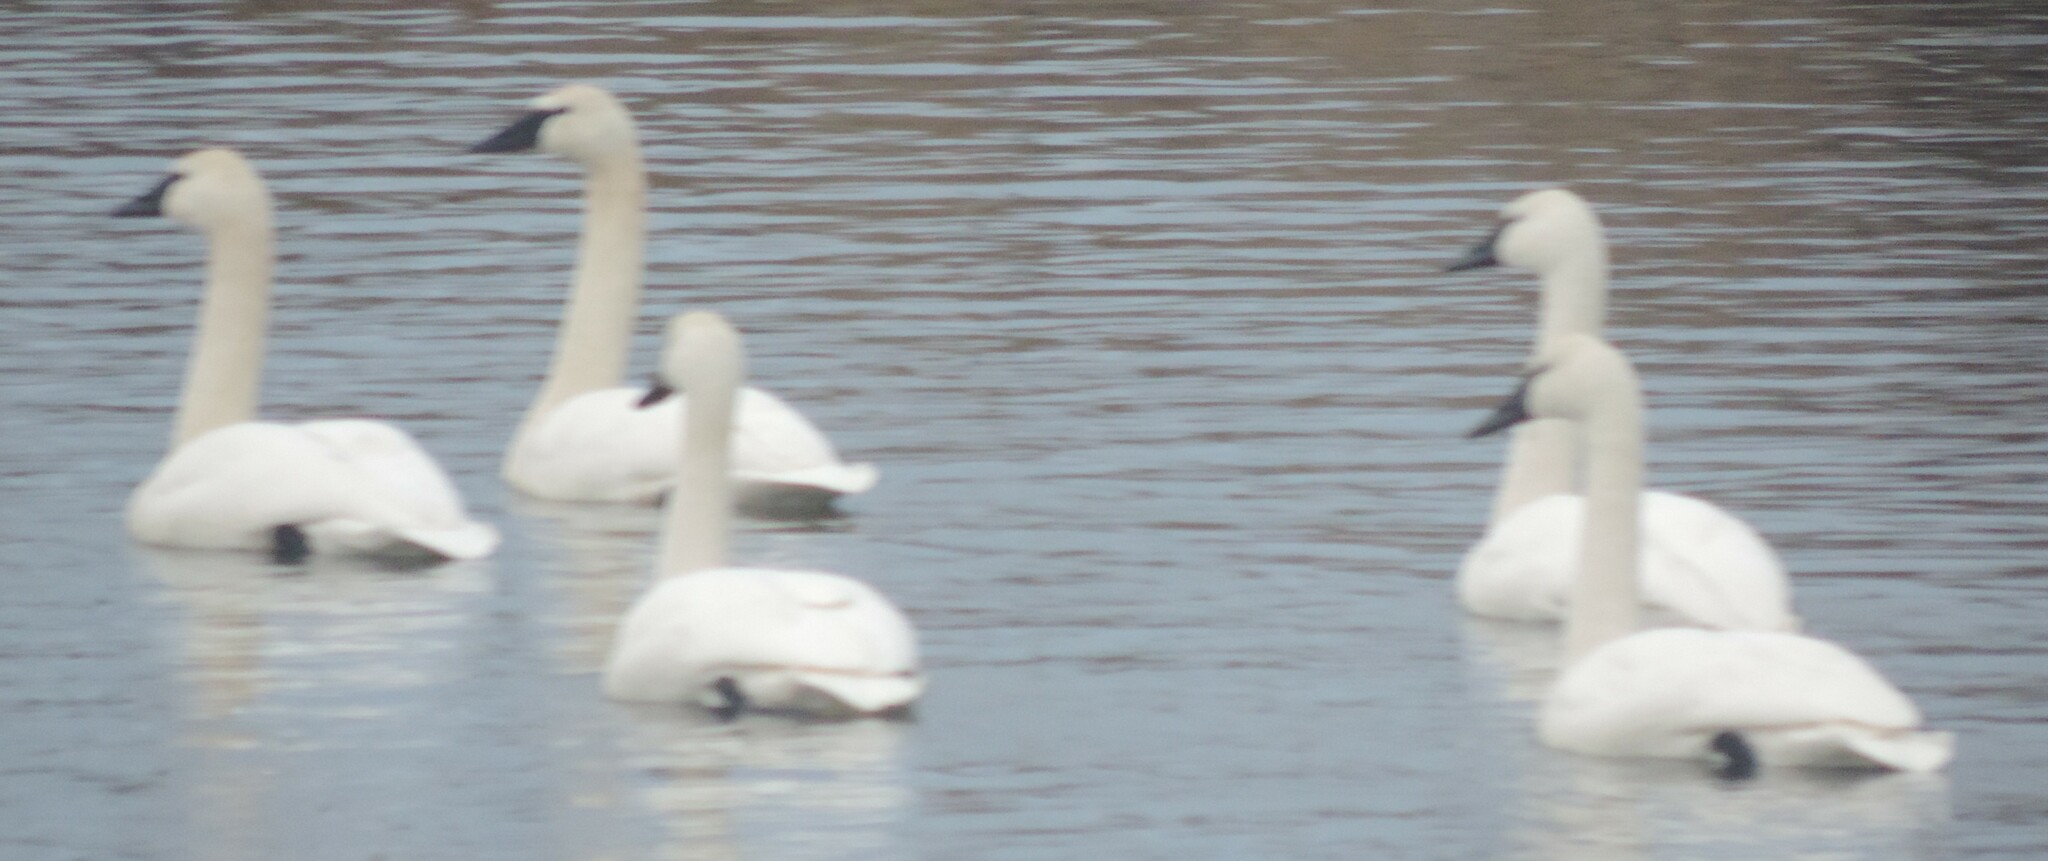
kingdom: Animalia
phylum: Chordata
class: Aves
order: Anseriformes
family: Anatidae
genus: Cygnus
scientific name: Cygnus buccinator
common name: Trumpeter swan
